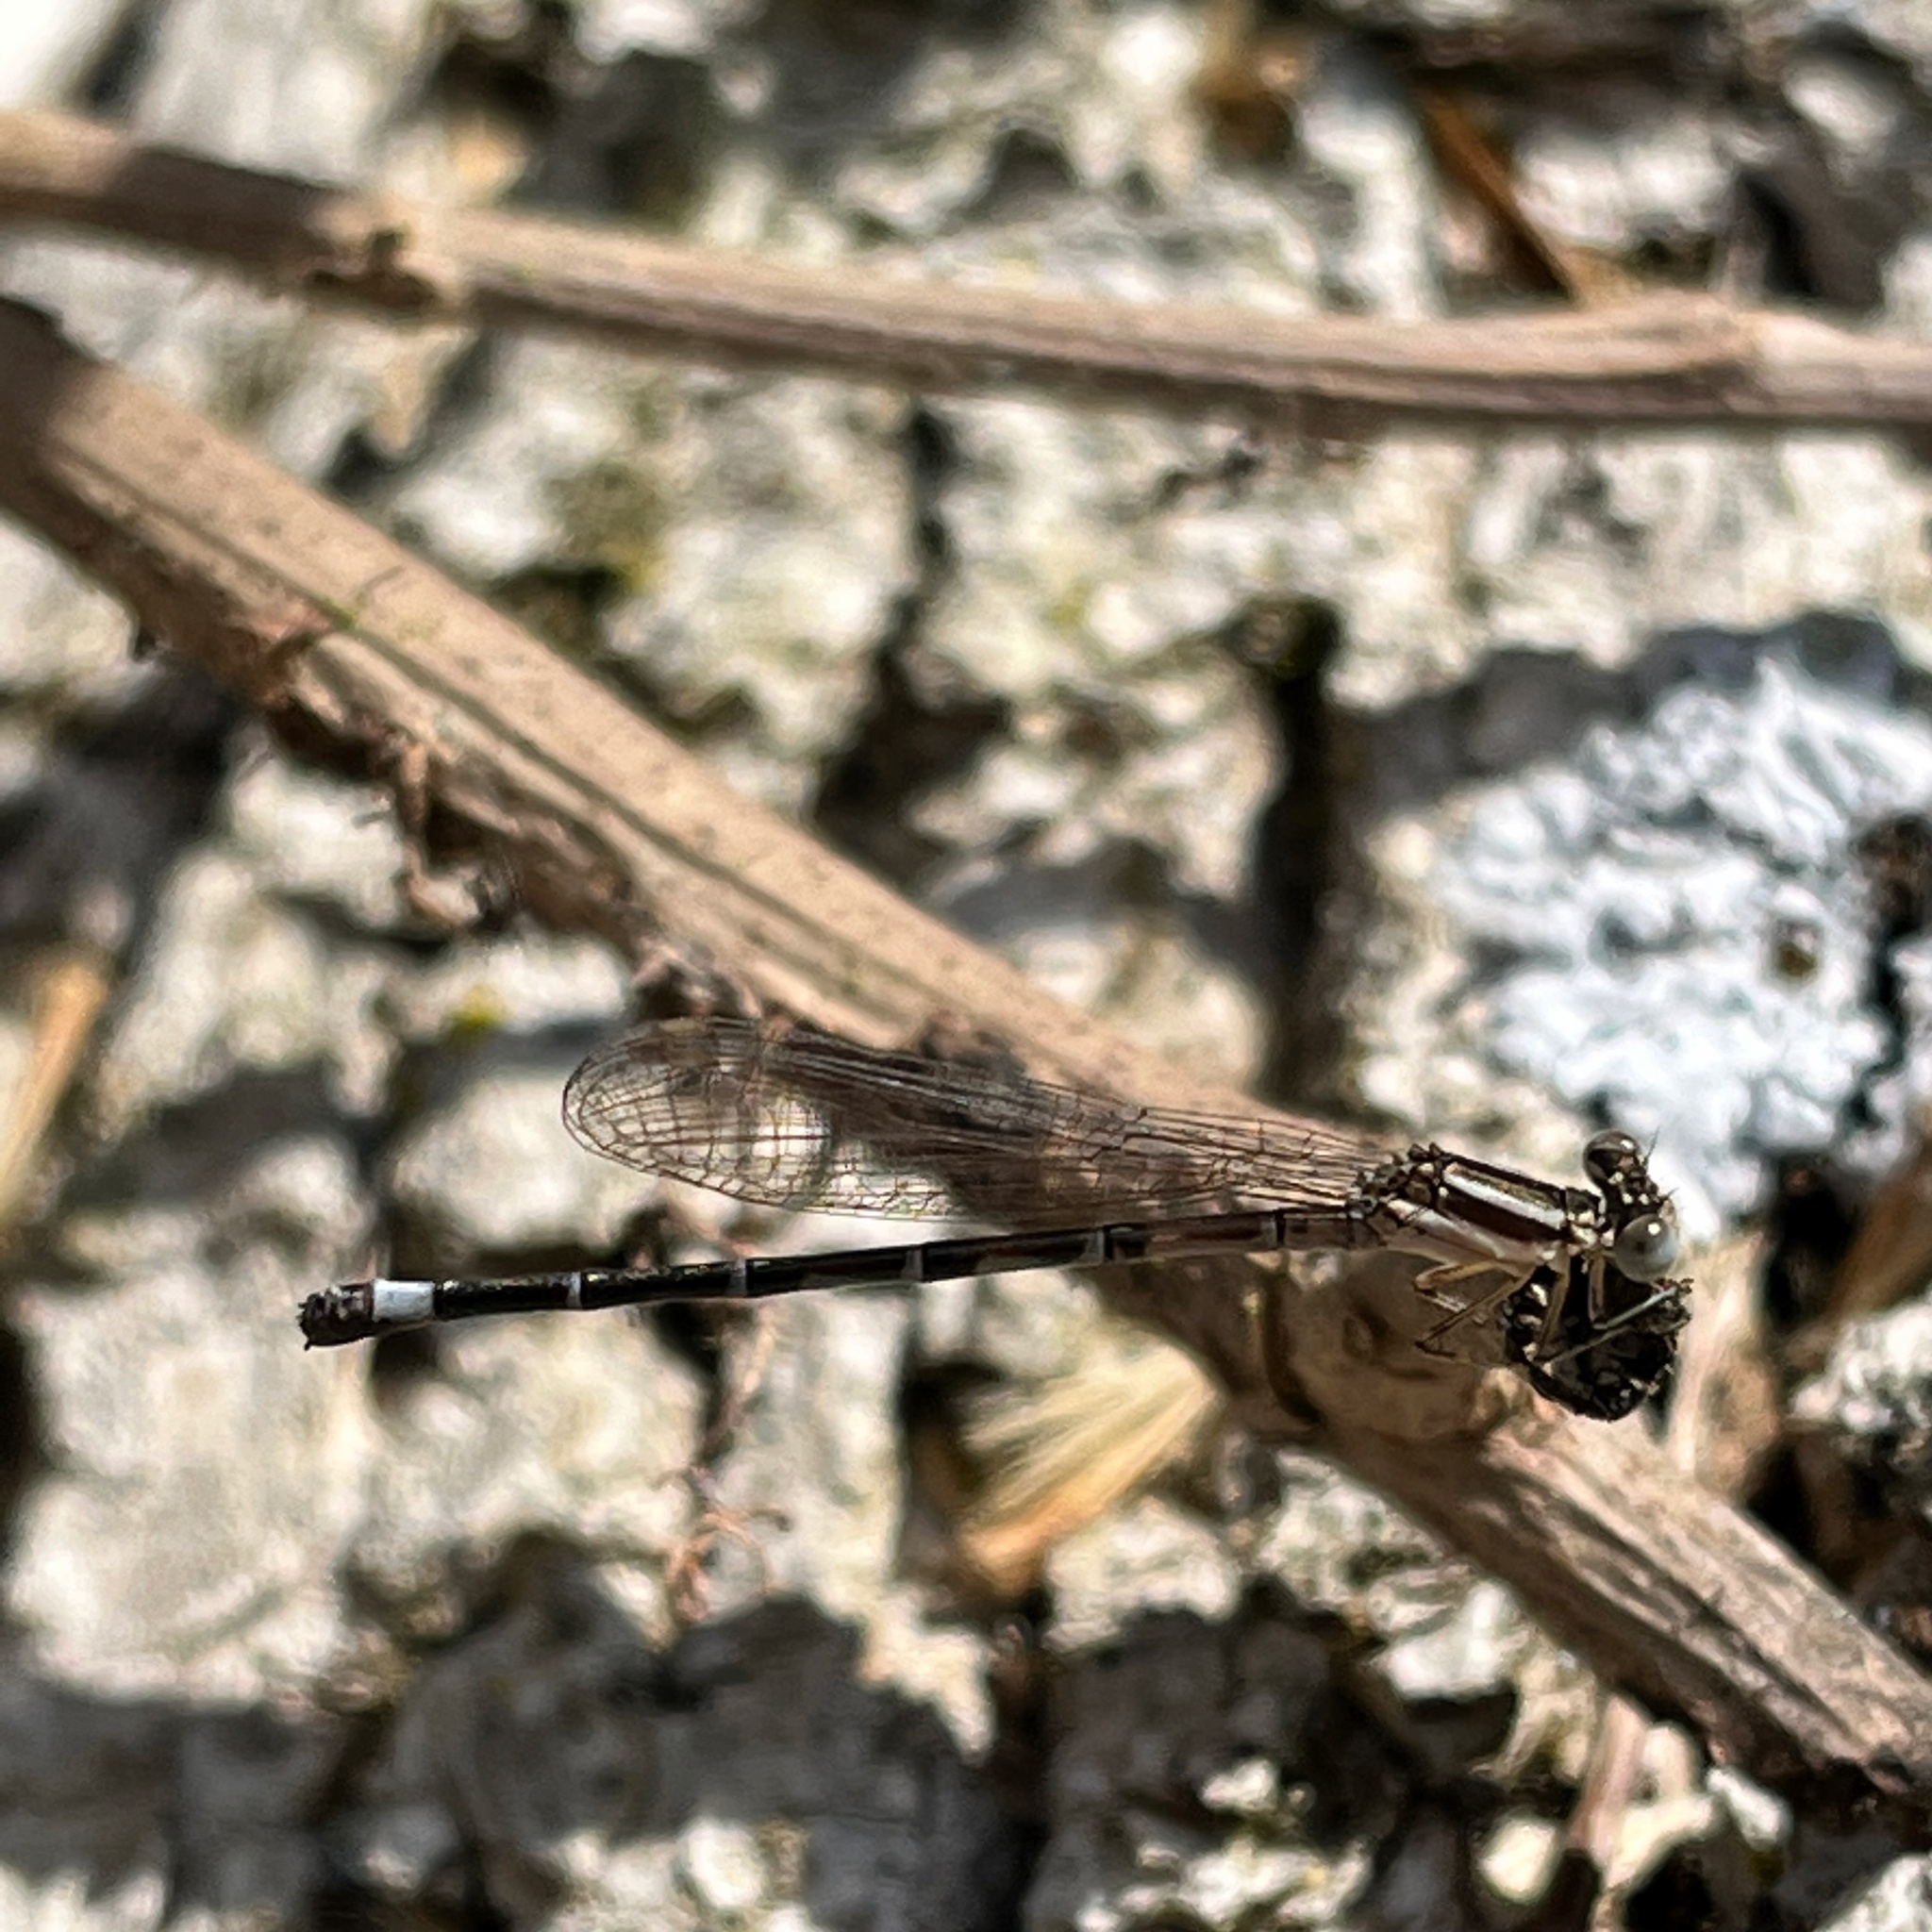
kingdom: Animalia
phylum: Arthropoda
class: Insecta
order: Odonata
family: Coenagrionidae
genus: Argia
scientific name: Argia bipunctulata
